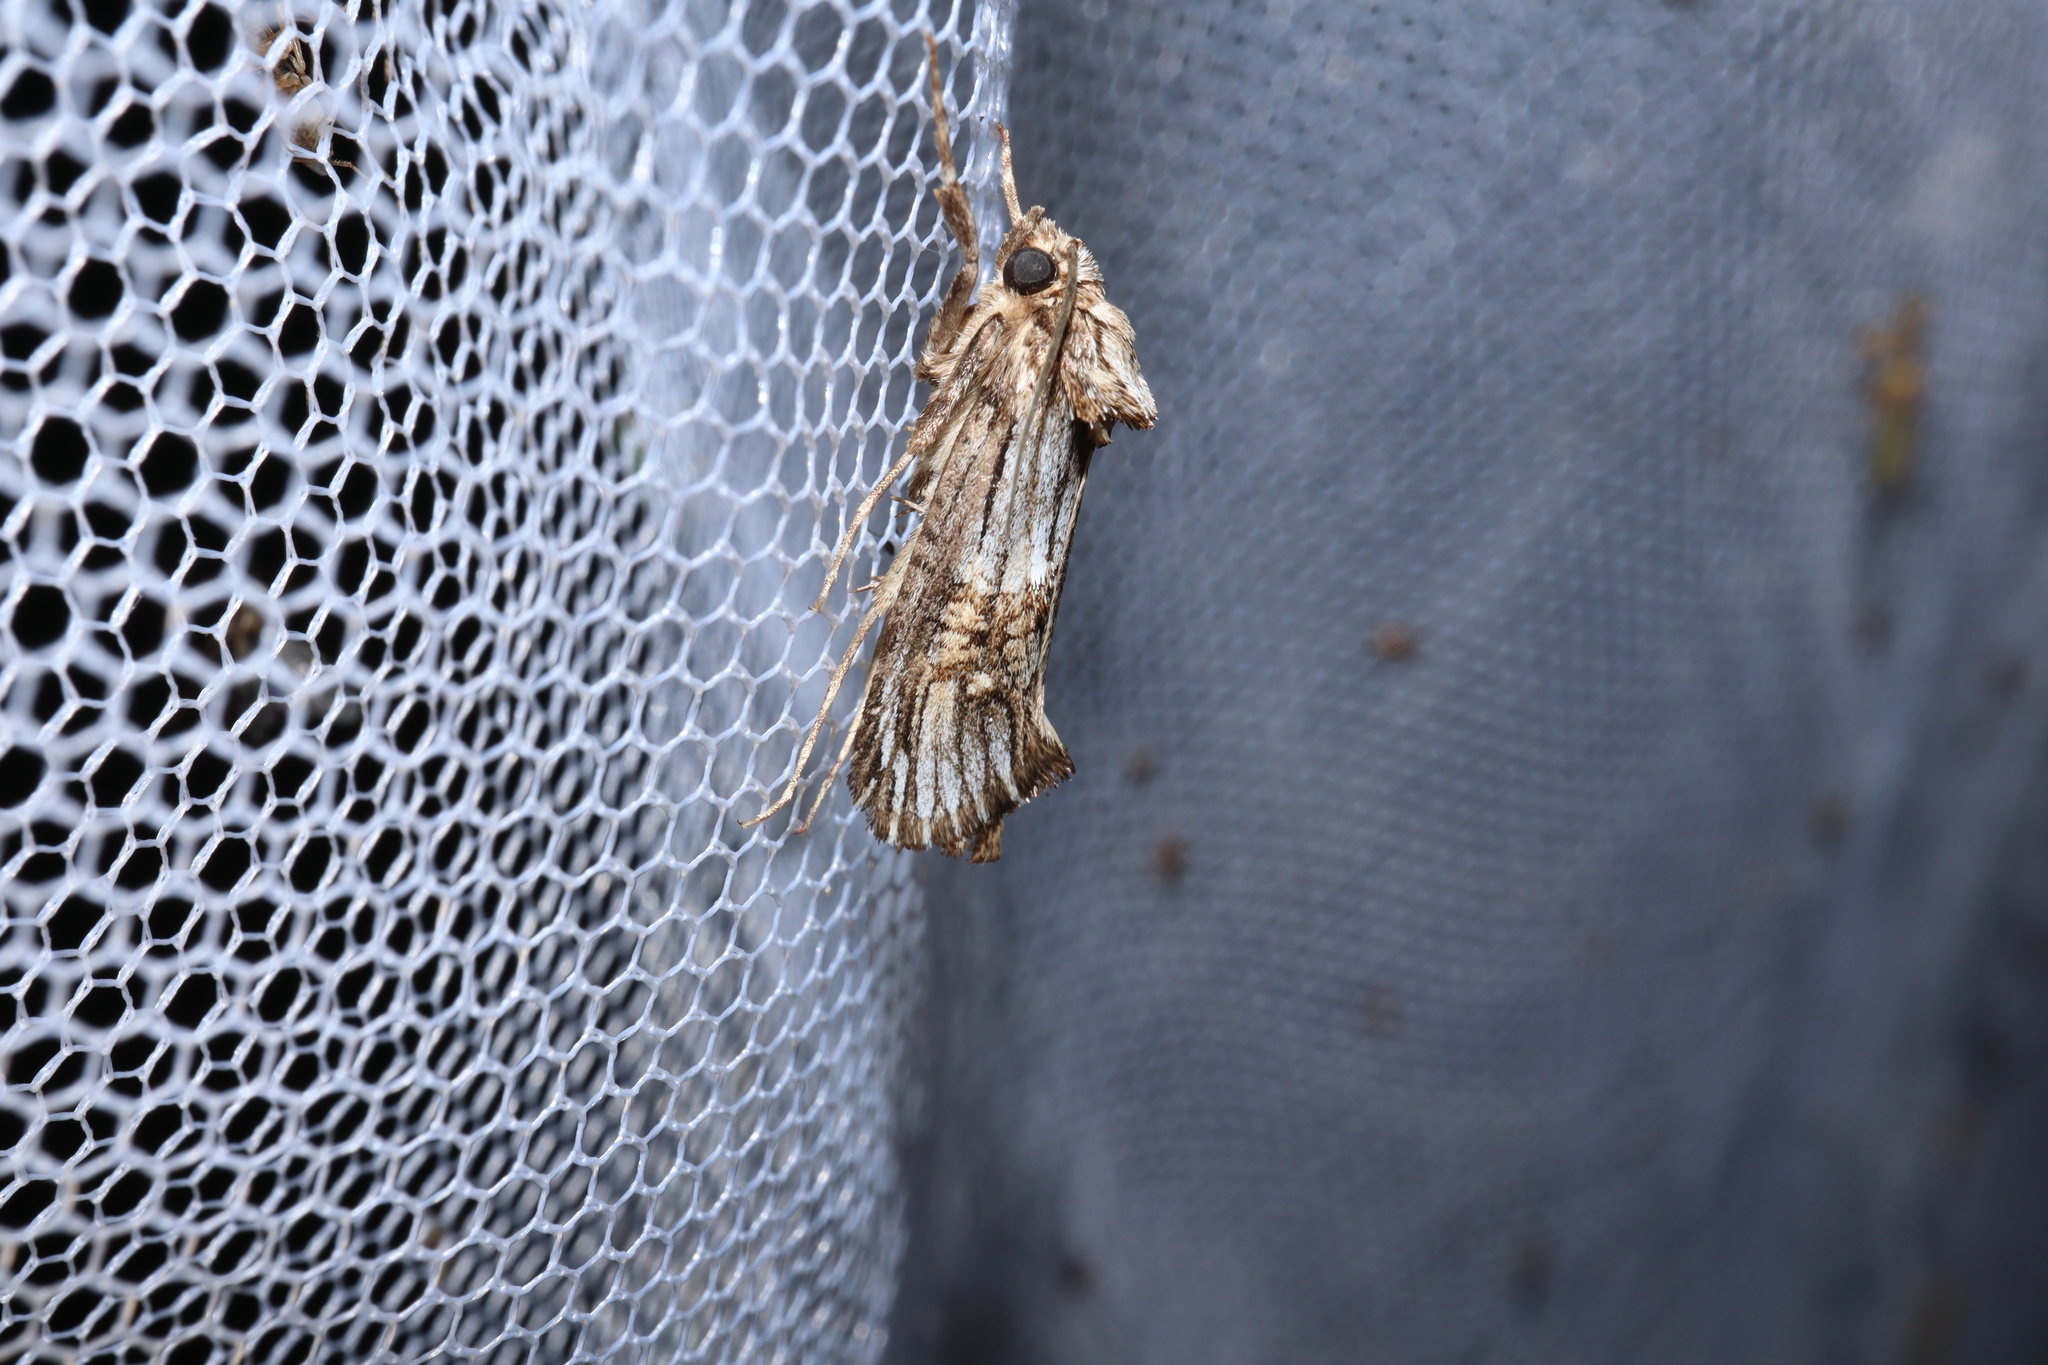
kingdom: Animalia
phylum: Arthropoda
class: Insecta
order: Lepidoptera
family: Cossidae
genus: Archaeoses
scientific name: Archaeoses pentasema
